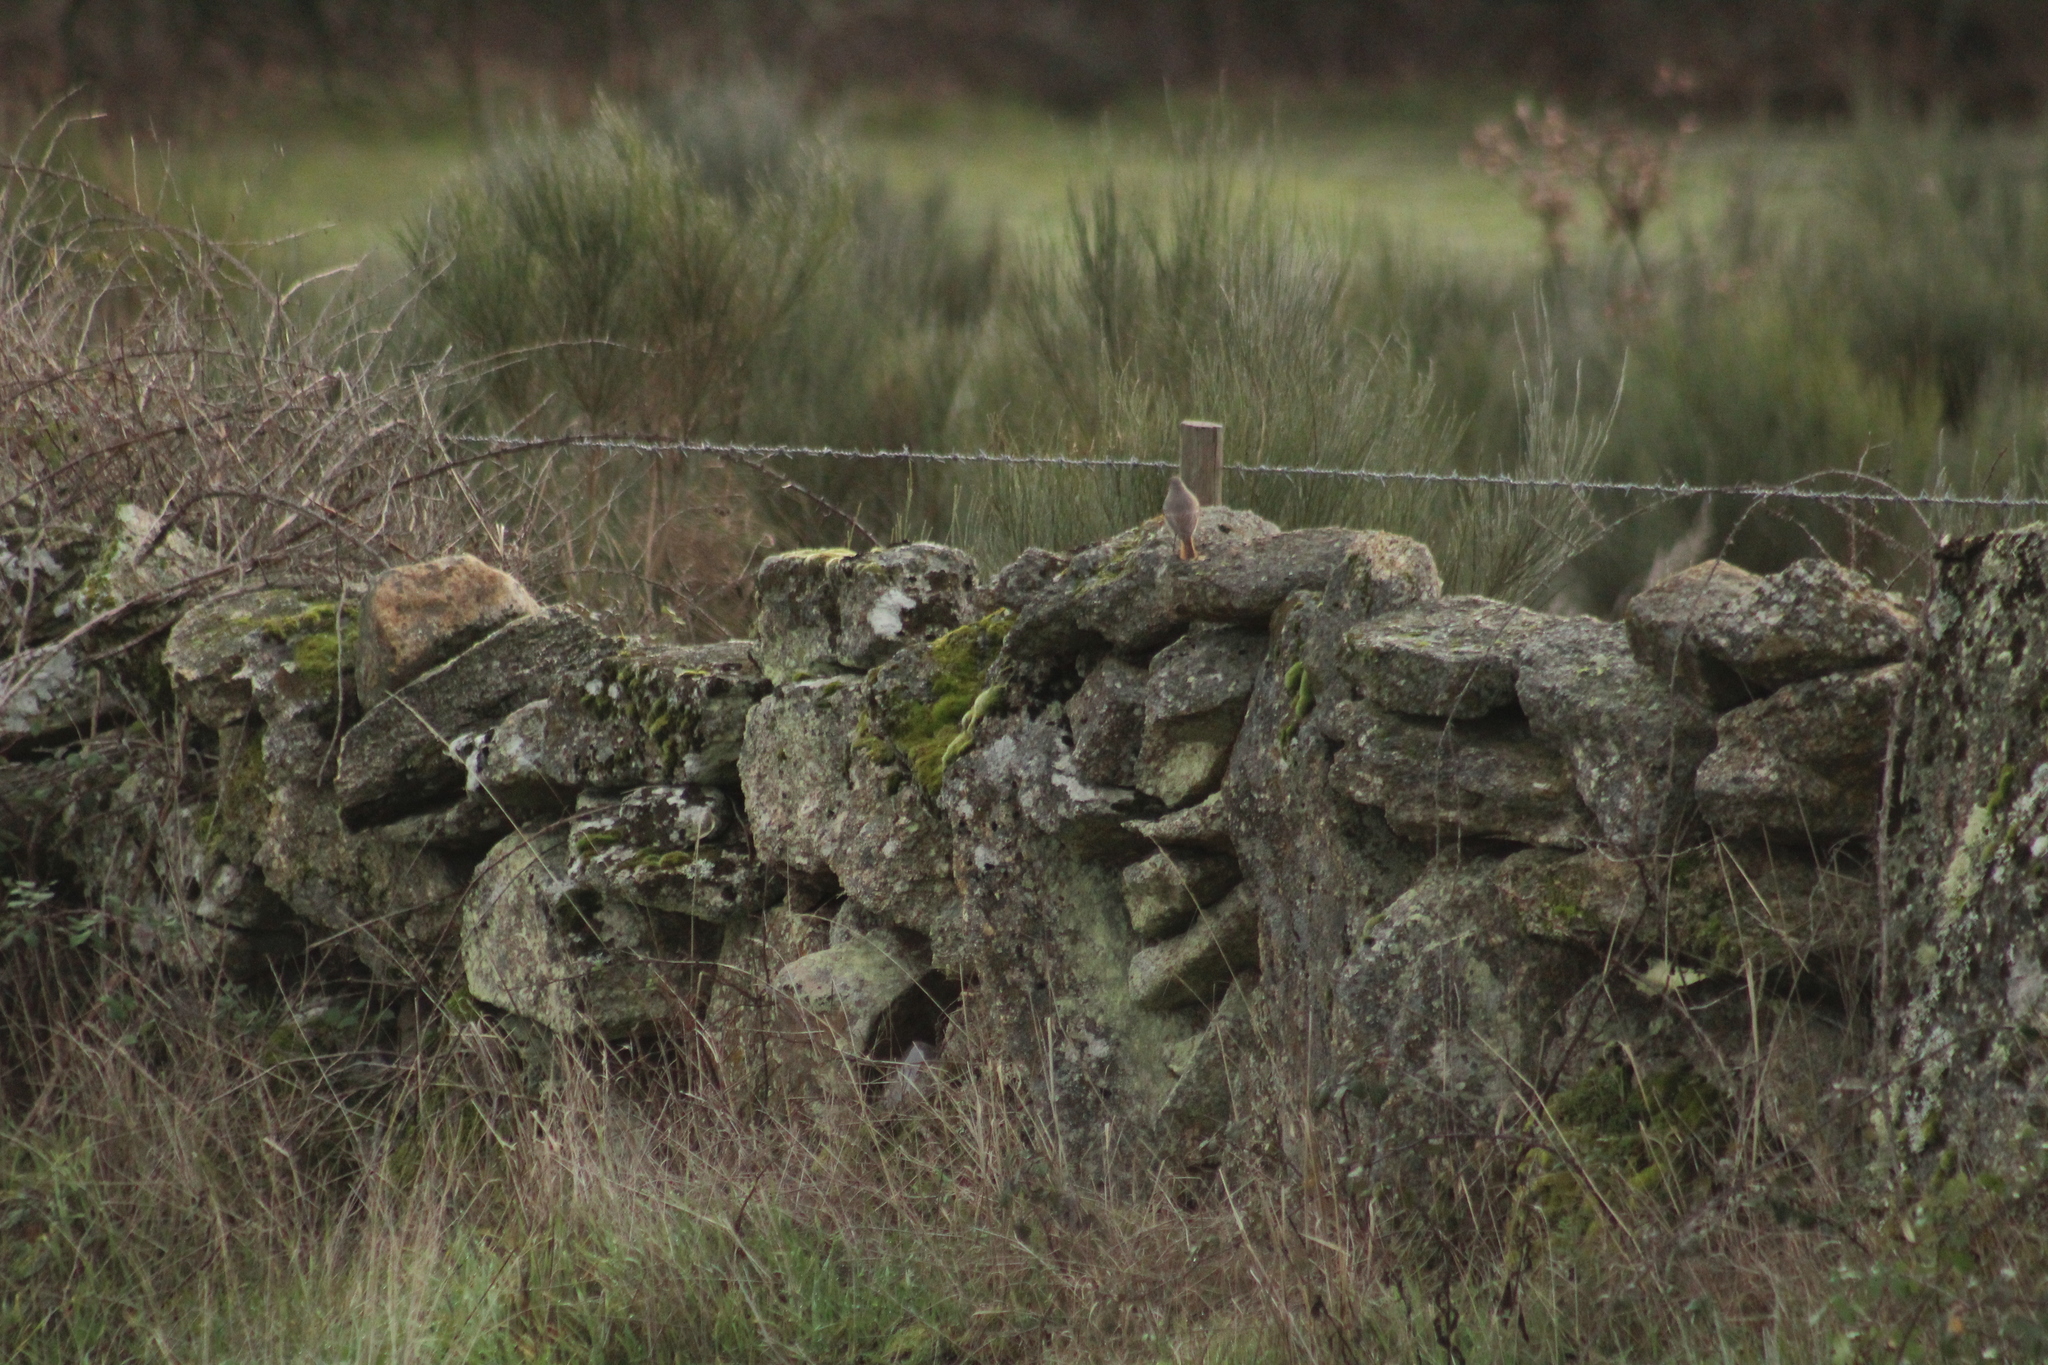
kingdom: Animalia
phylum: Chordata
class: Aves
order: Passeriformes
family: Muscicapidae
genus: Phoenicurus
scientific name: Phoenicurus ochruros
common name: Black redstart
